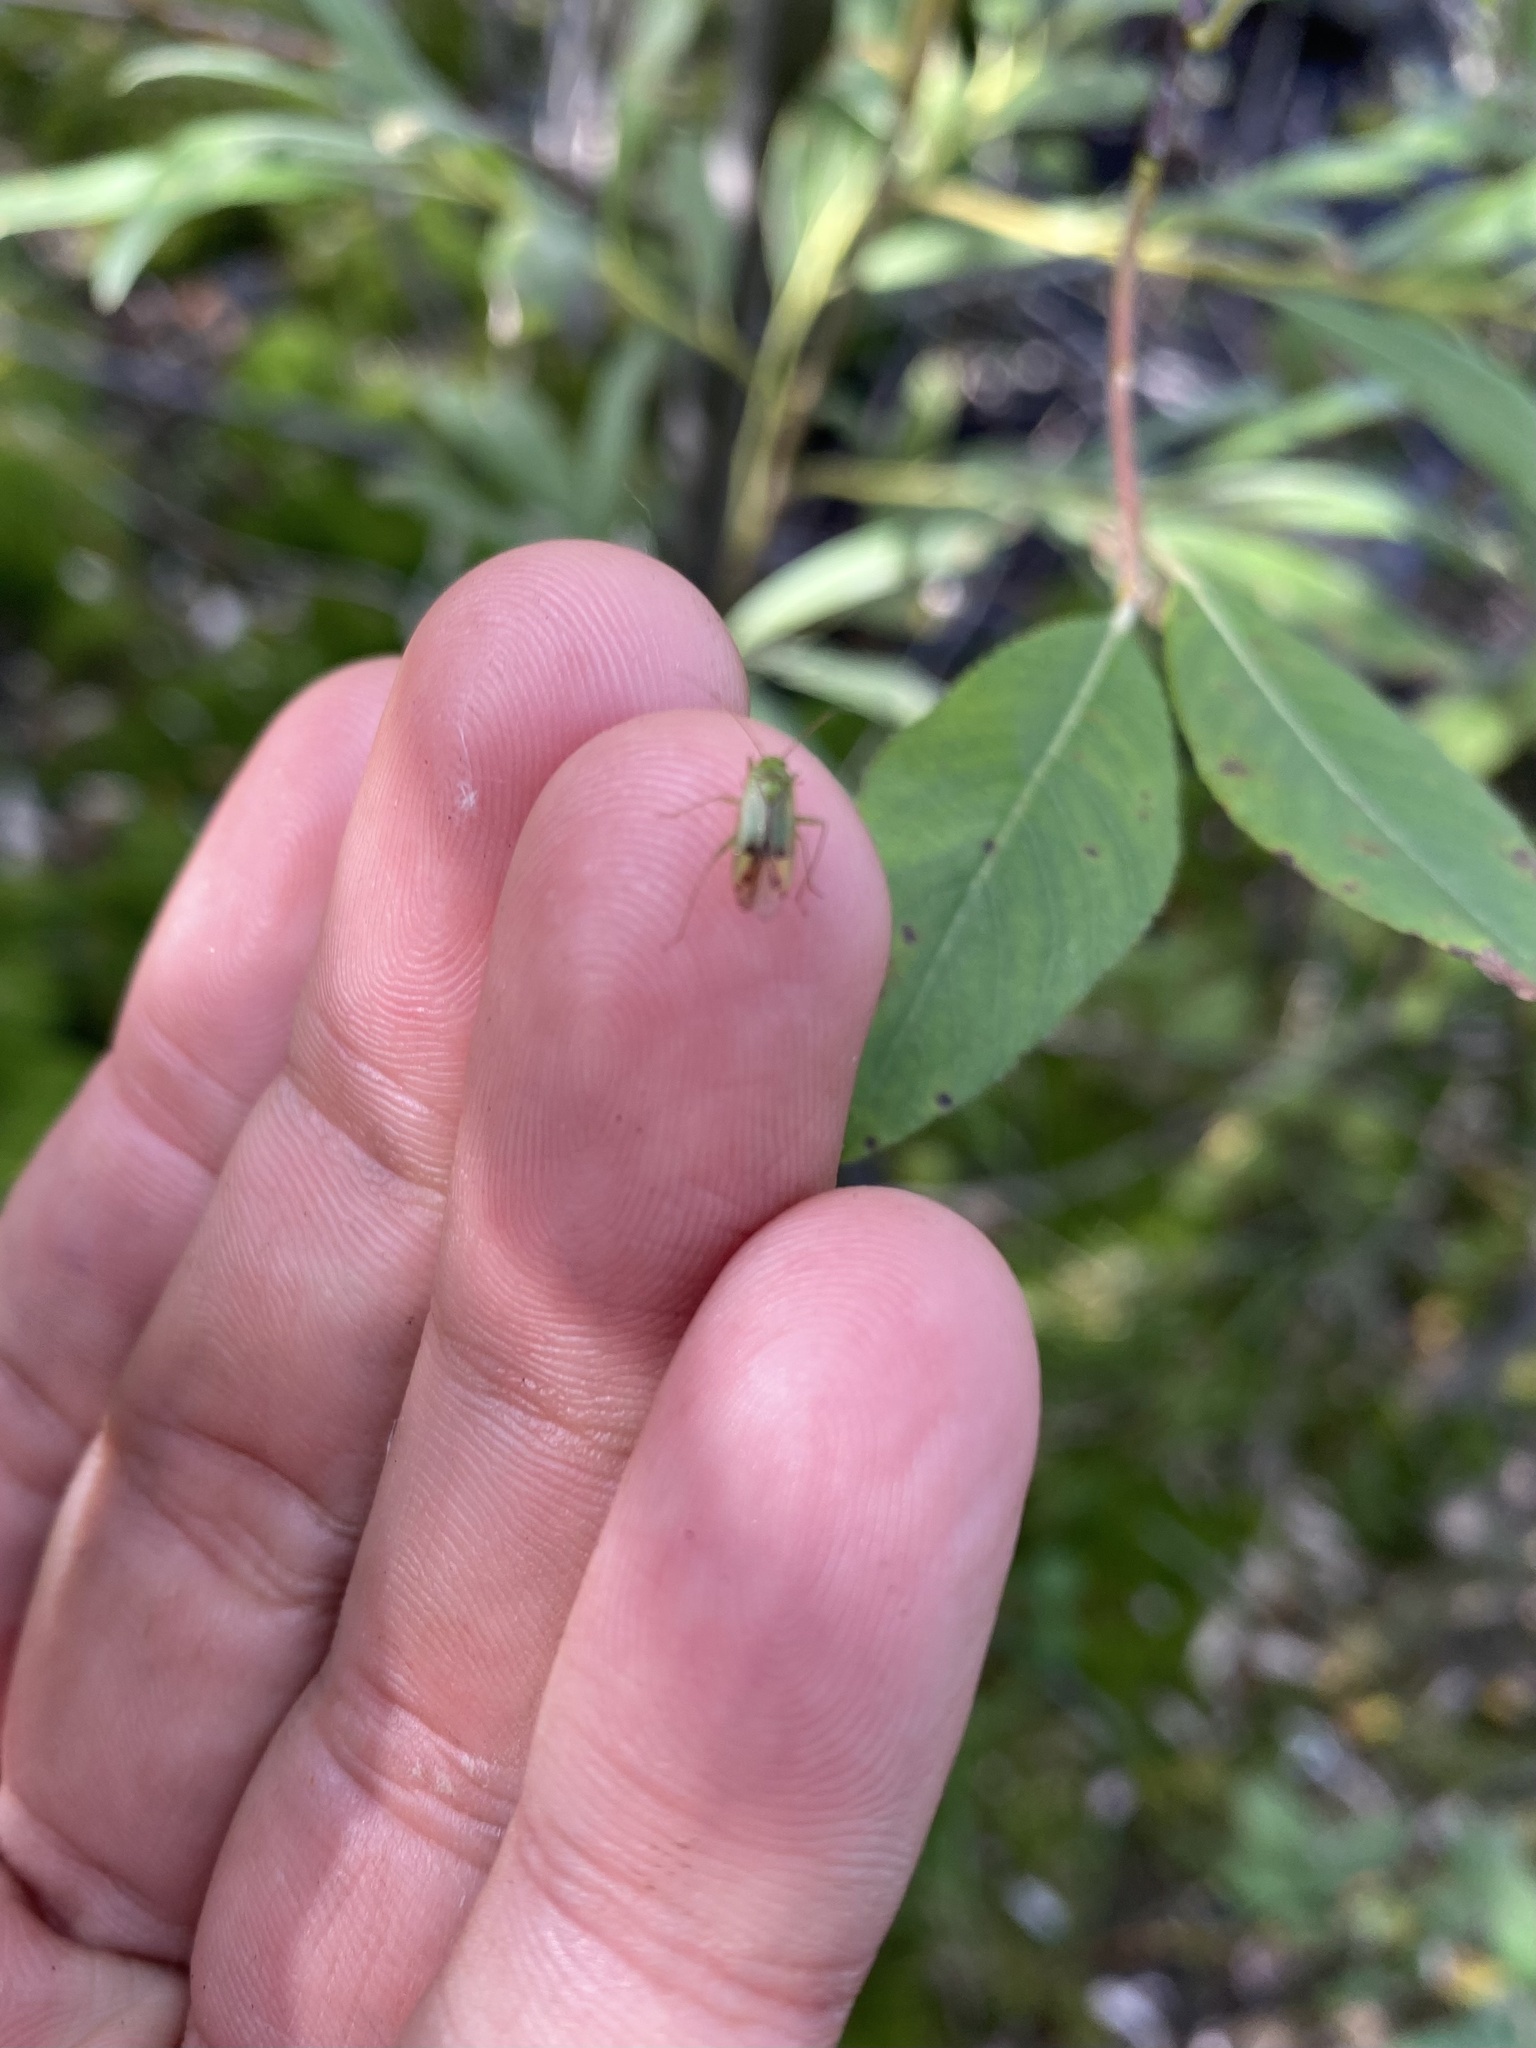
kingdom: Plantae
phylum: Tracheophyta
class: Magnoliopsida
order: Malpighiales
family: Salicaceae
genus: Salix
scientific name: Salix hastata
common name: Halberd willow
